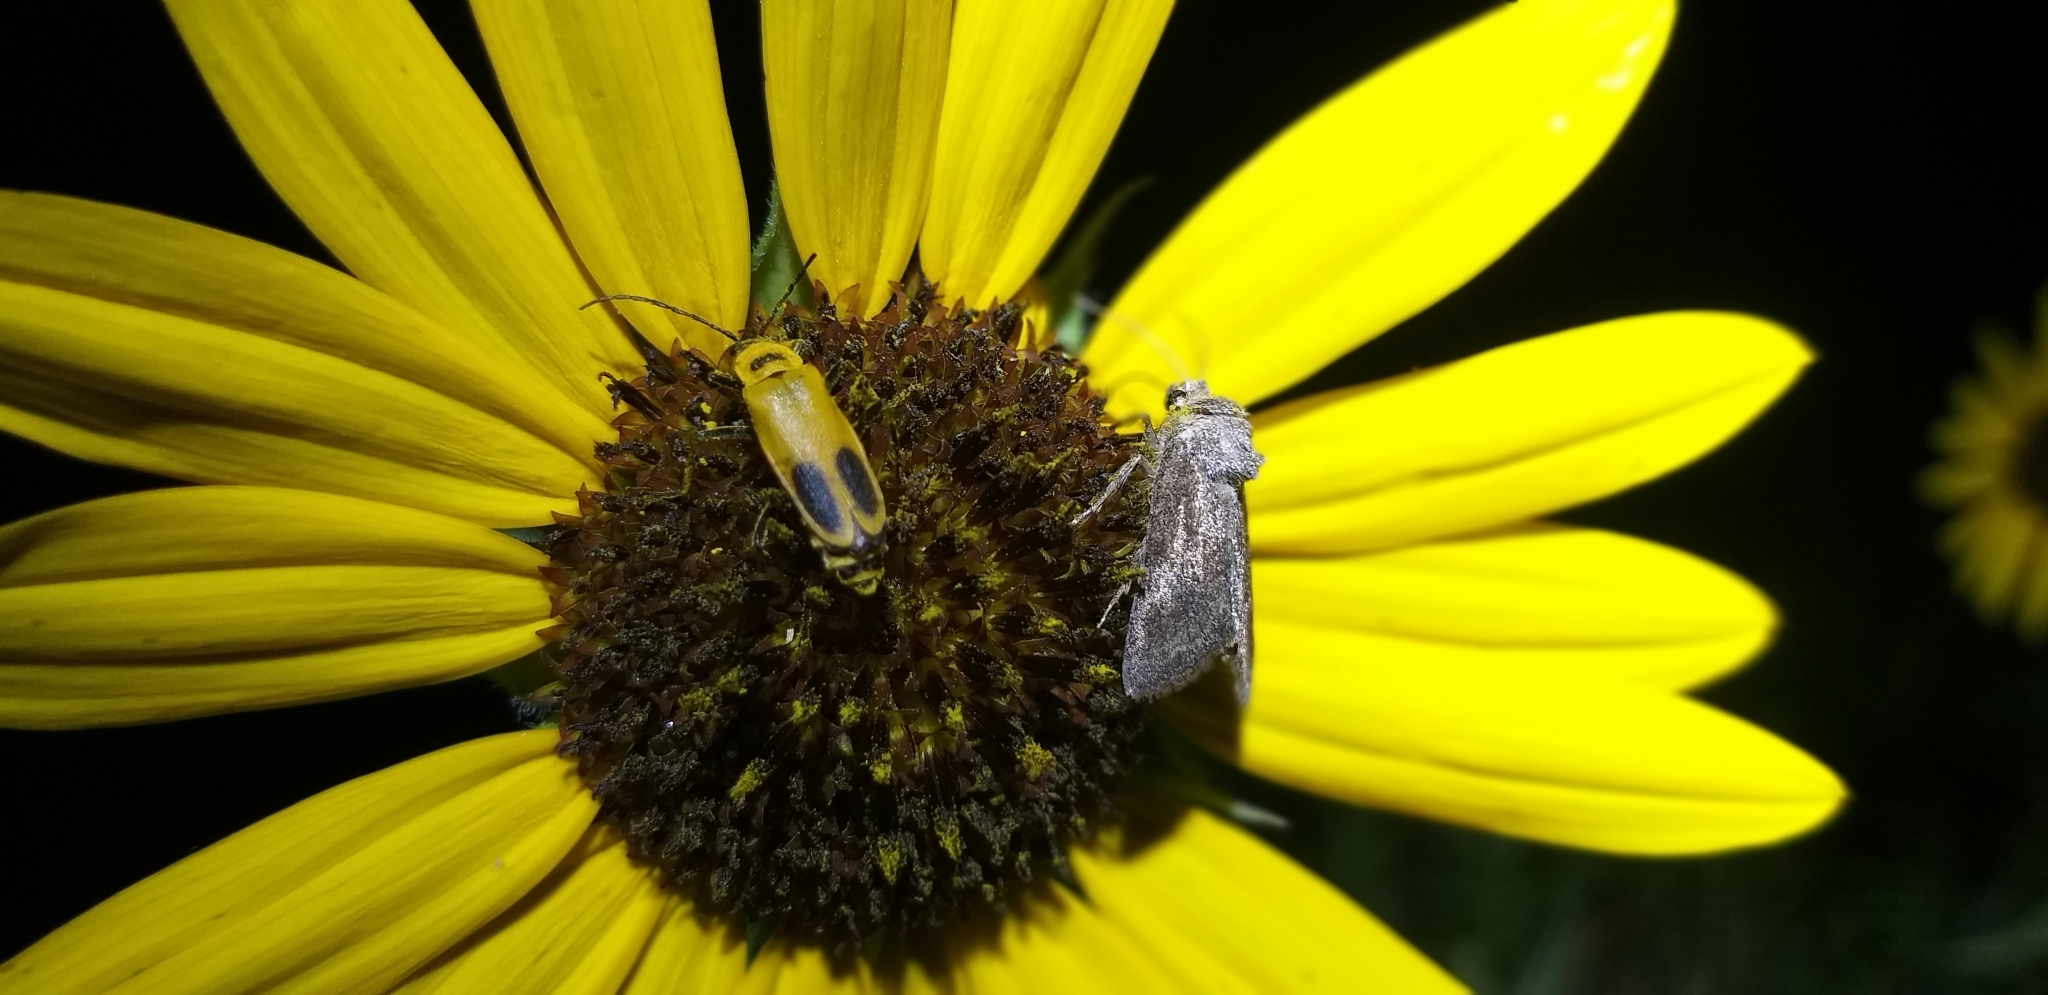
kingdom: Animalia
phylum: Arthropoda
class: Insecta
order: Coleoptera
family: Cantharidae
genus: Chauliognathus
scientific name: Chauliognathus pensylvanicus
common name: Goldenrod soldier beetle
